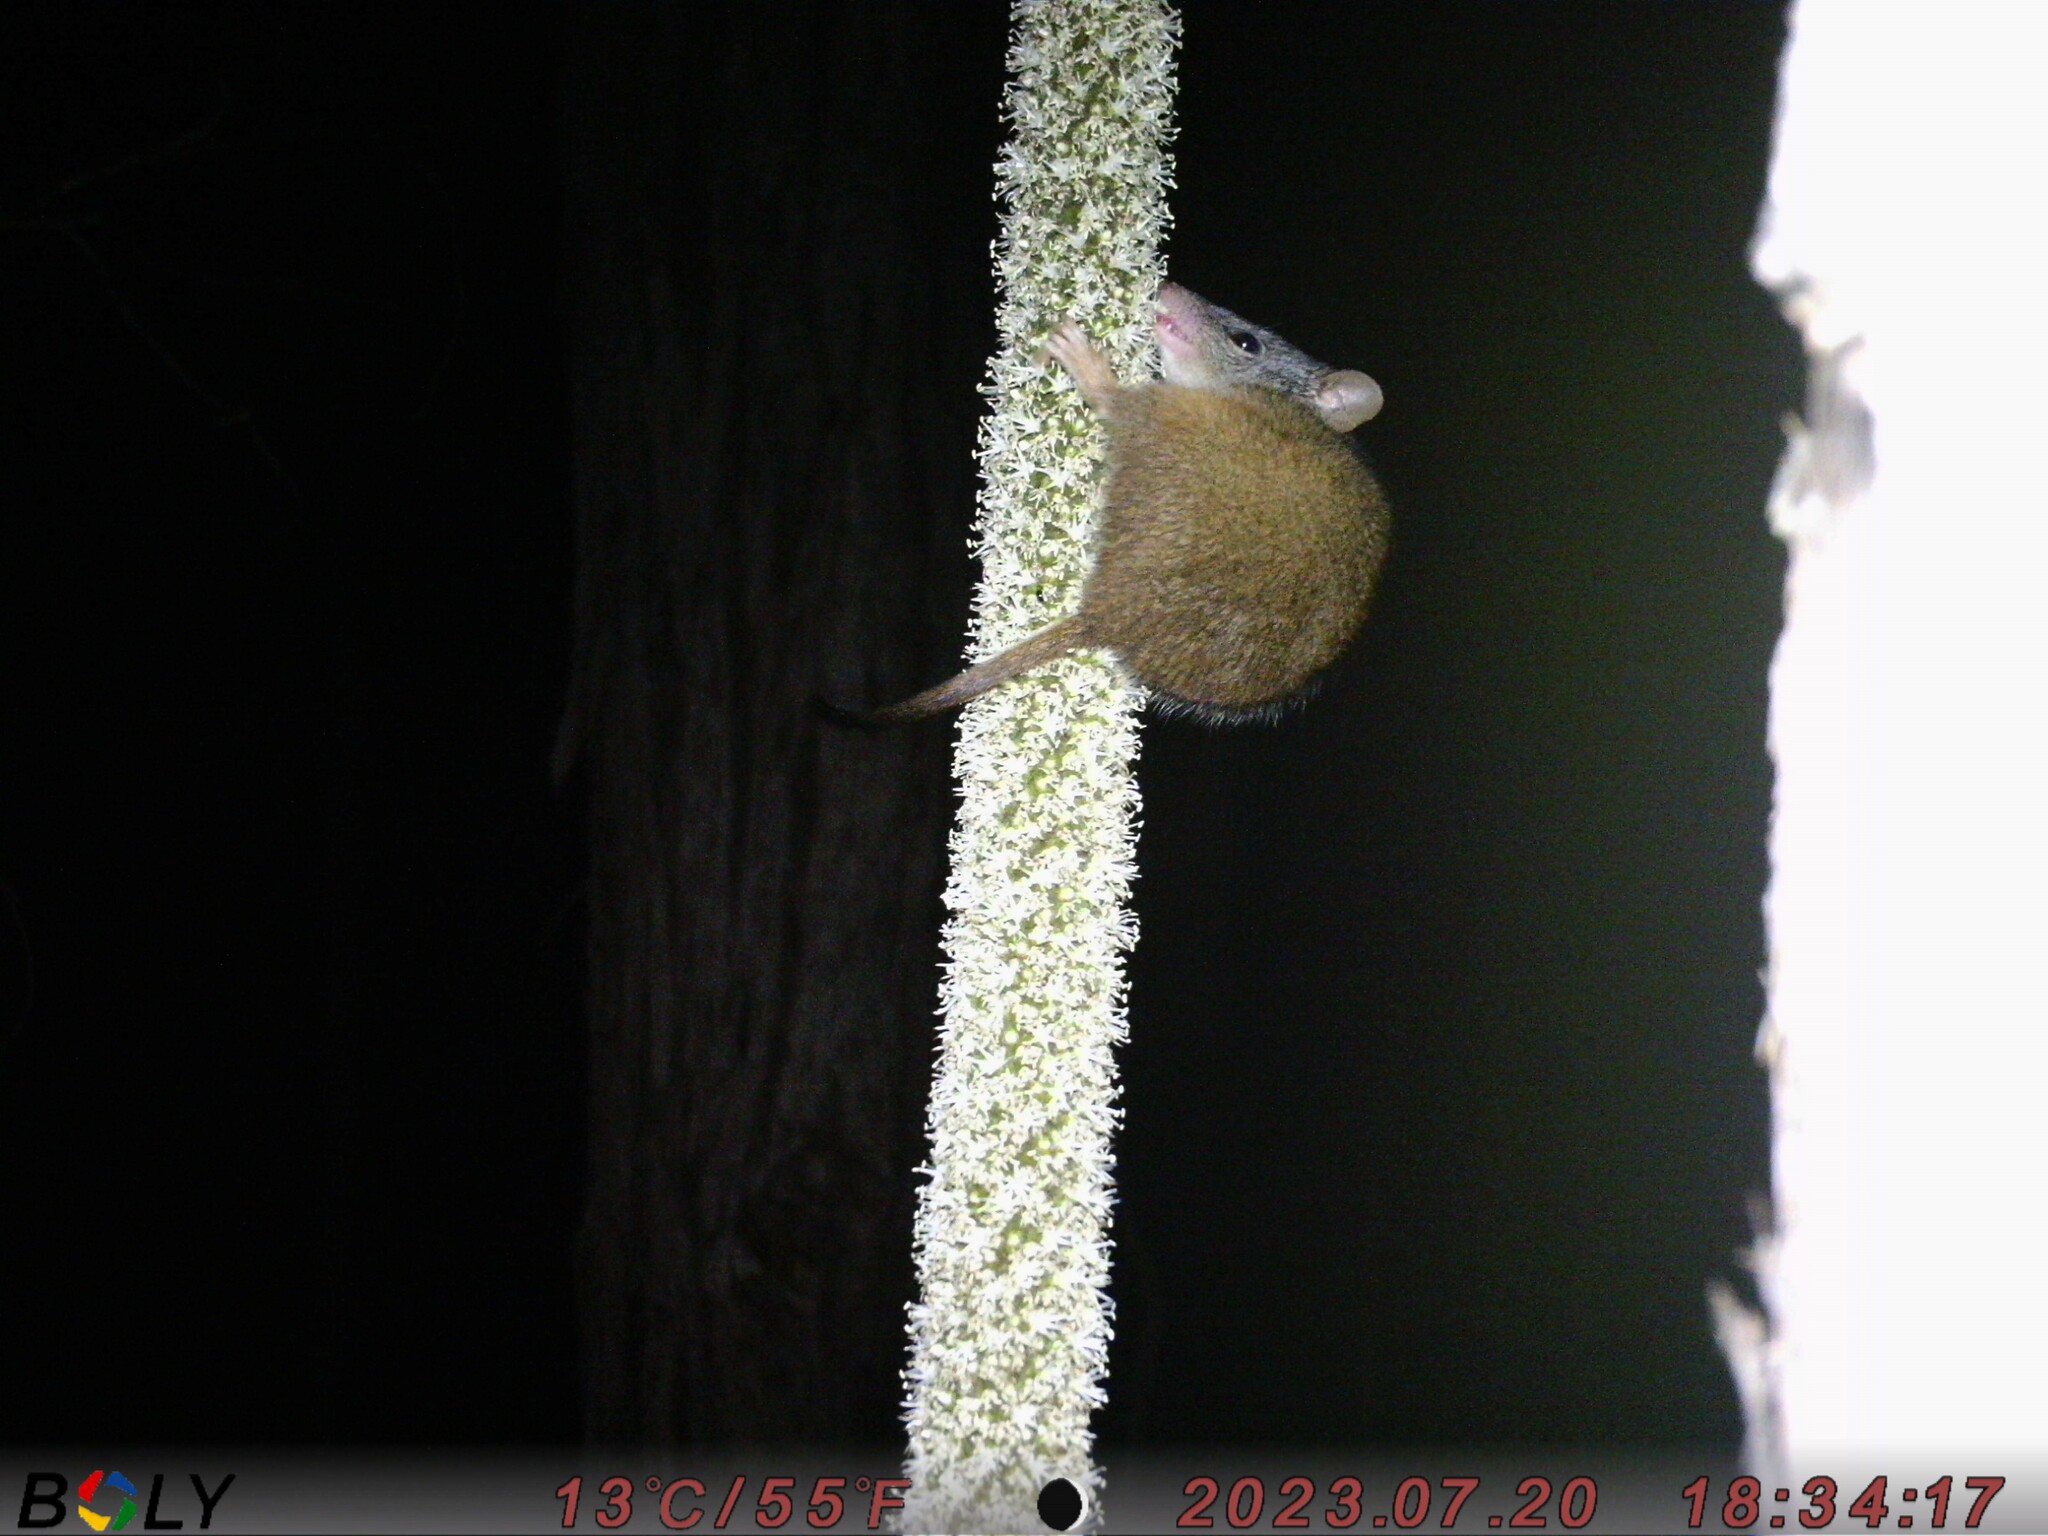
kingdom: Animalia
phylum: Chordata
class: Mammalia
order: Dasyuromorphia
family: Dasyuridae
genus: Antechinus
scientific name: Antechinus flavipes
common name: Yellow-footed antechinus
